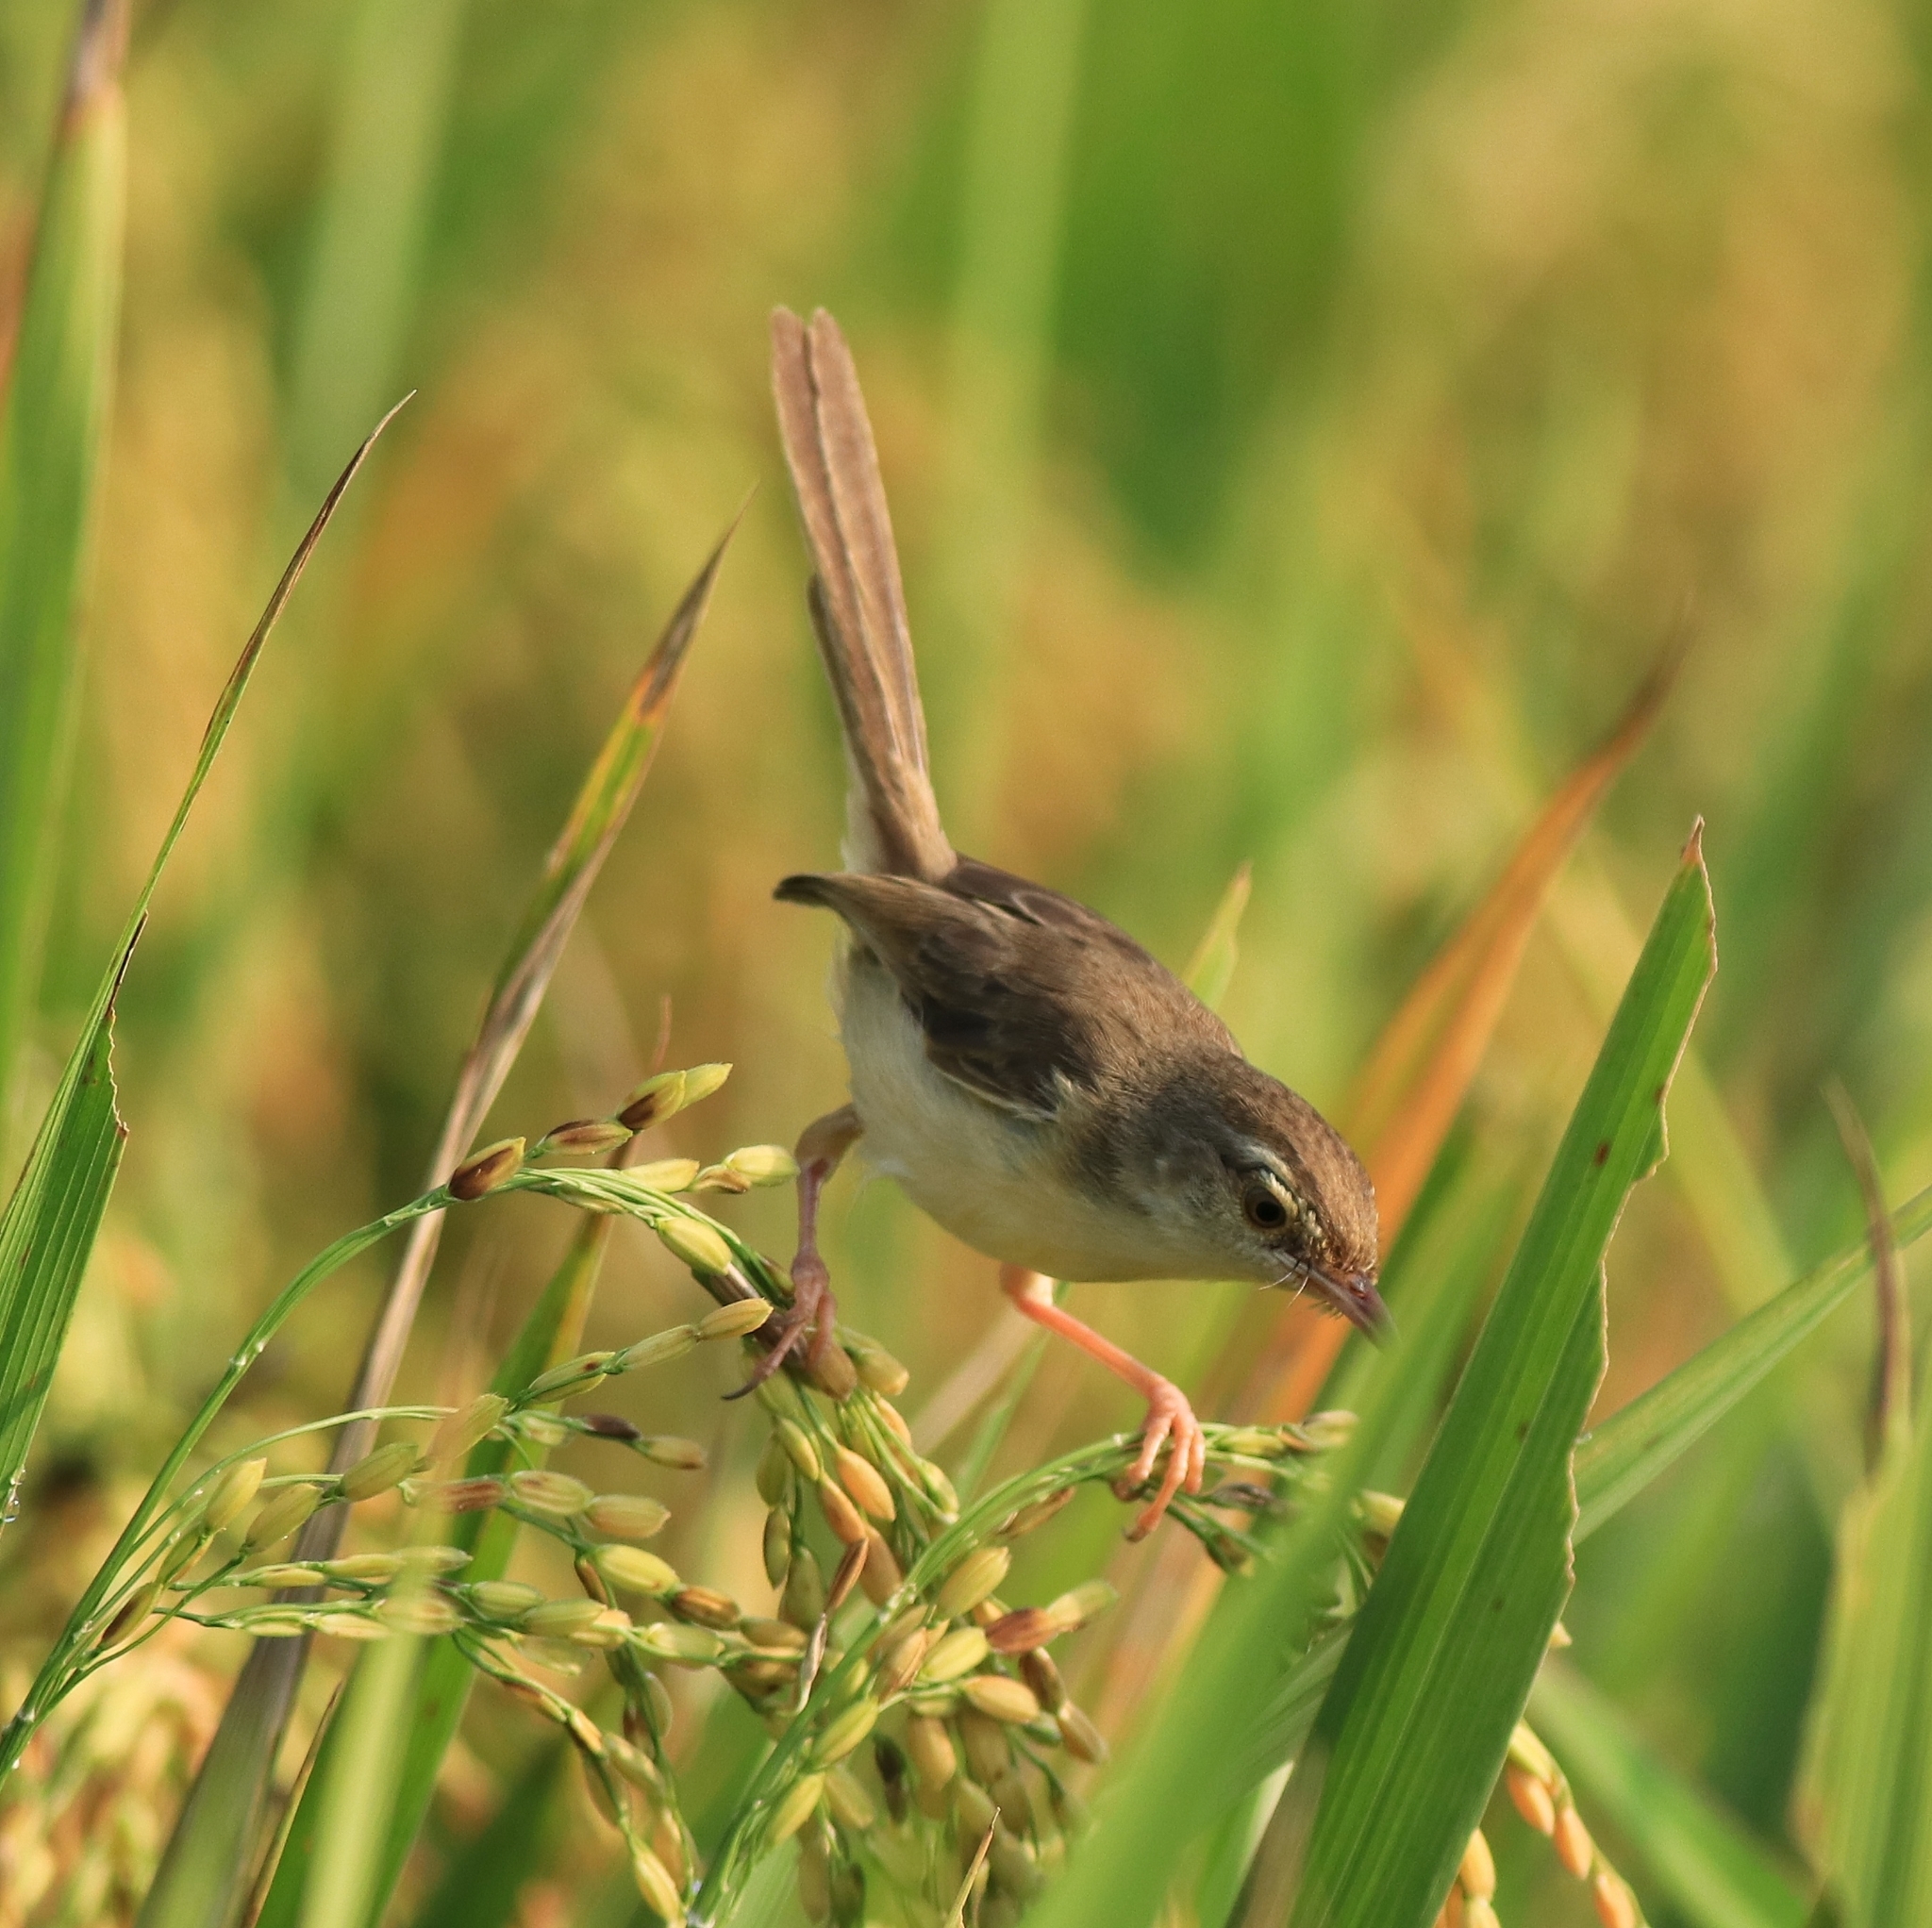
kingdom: Animalia
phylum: Chordata
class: Aves
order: Passeriformes
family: Cisticolidae
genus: Prinia
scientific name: Prinia inornata
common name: Plain prinia
